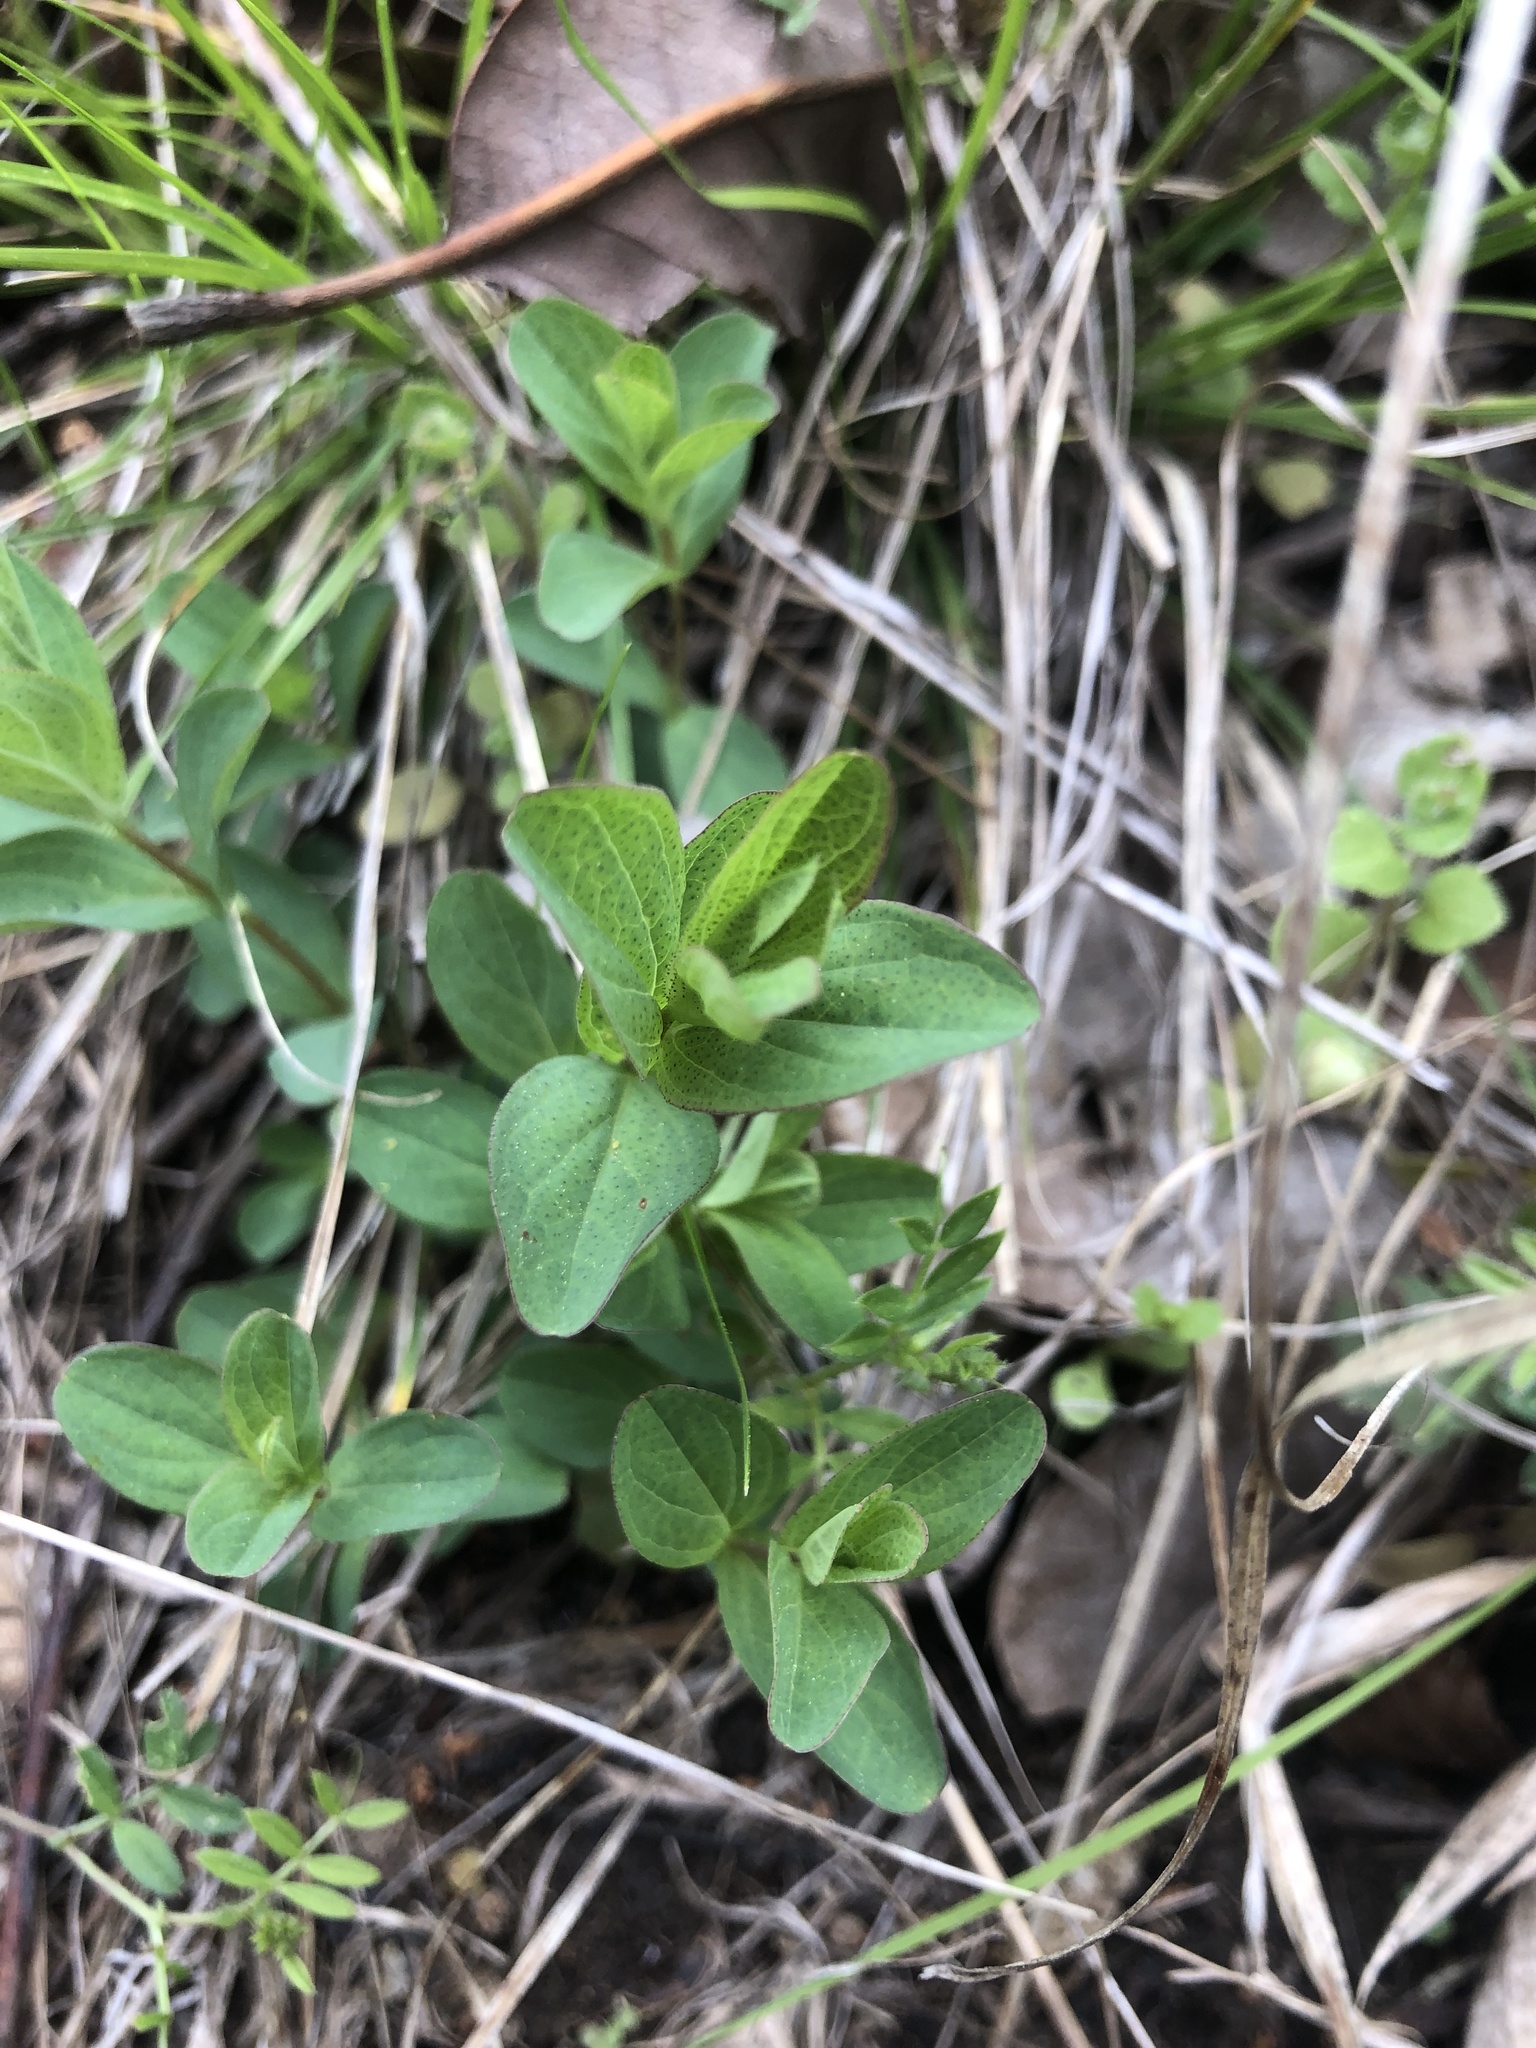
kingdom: Plantae
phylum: Tracheophyta
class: Magnoliopsida
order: Malpighiales
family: Hypericaceae
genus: Hypericum
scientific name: Hypericum punctatum
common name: Spotted st. john's-wort
